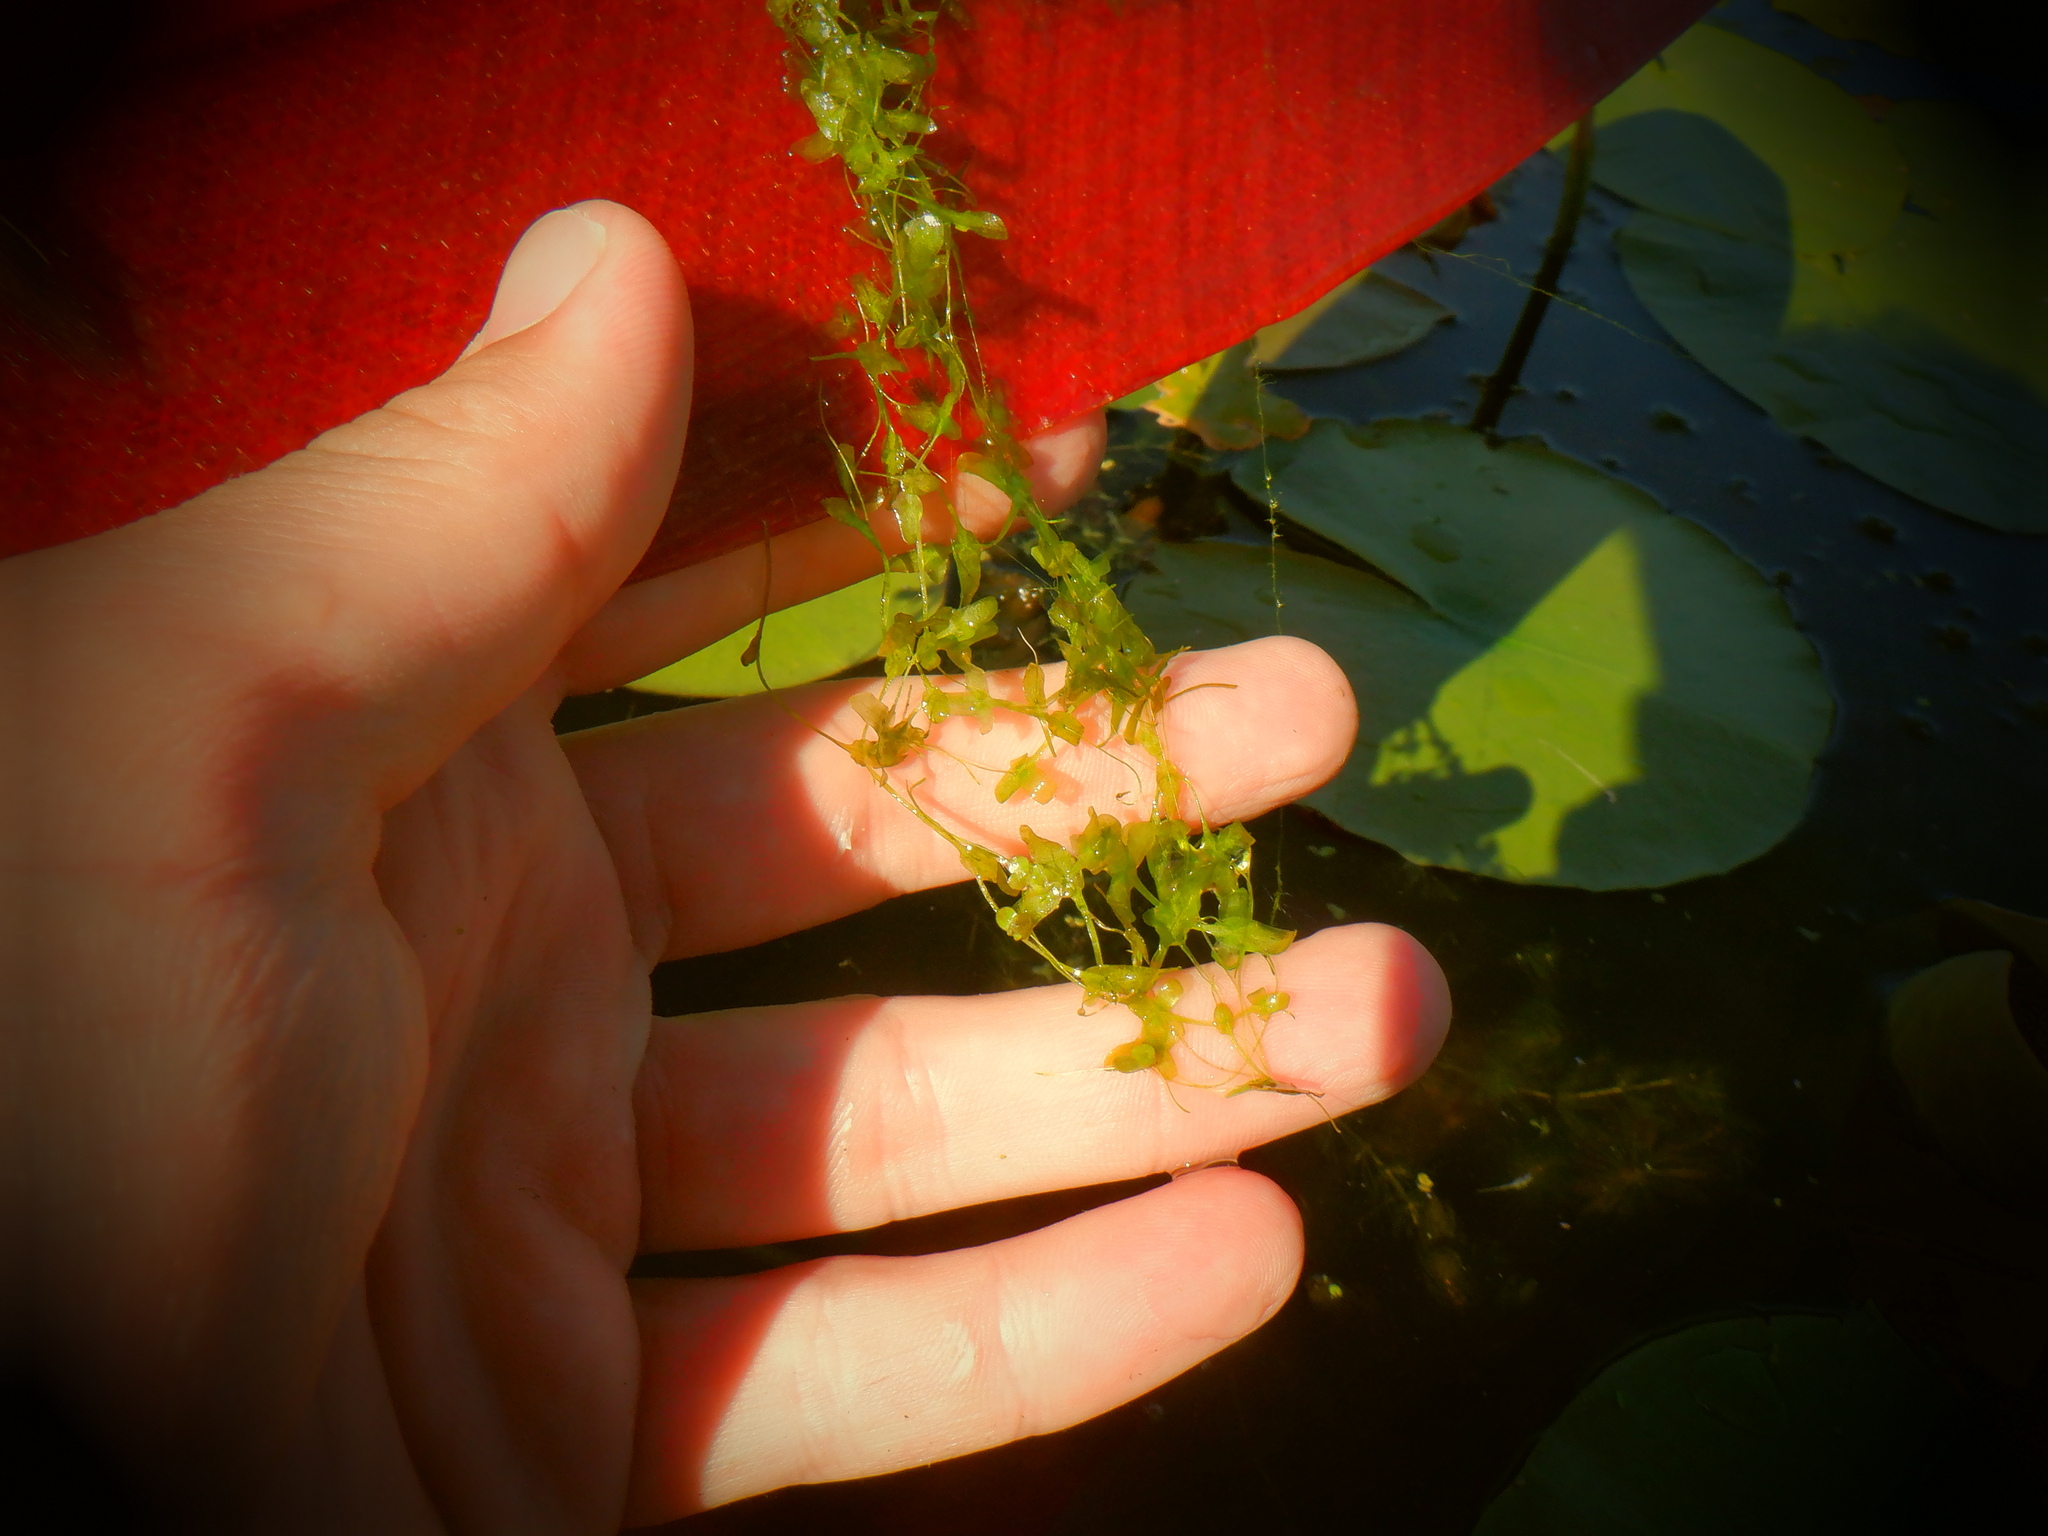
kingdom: Plantae
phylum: Tracheophyta
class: Liliopsida
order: Alismatales
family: Araceae
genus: Lemna
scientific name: Lemna trisulca
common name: Ivy-leaved duckweed
